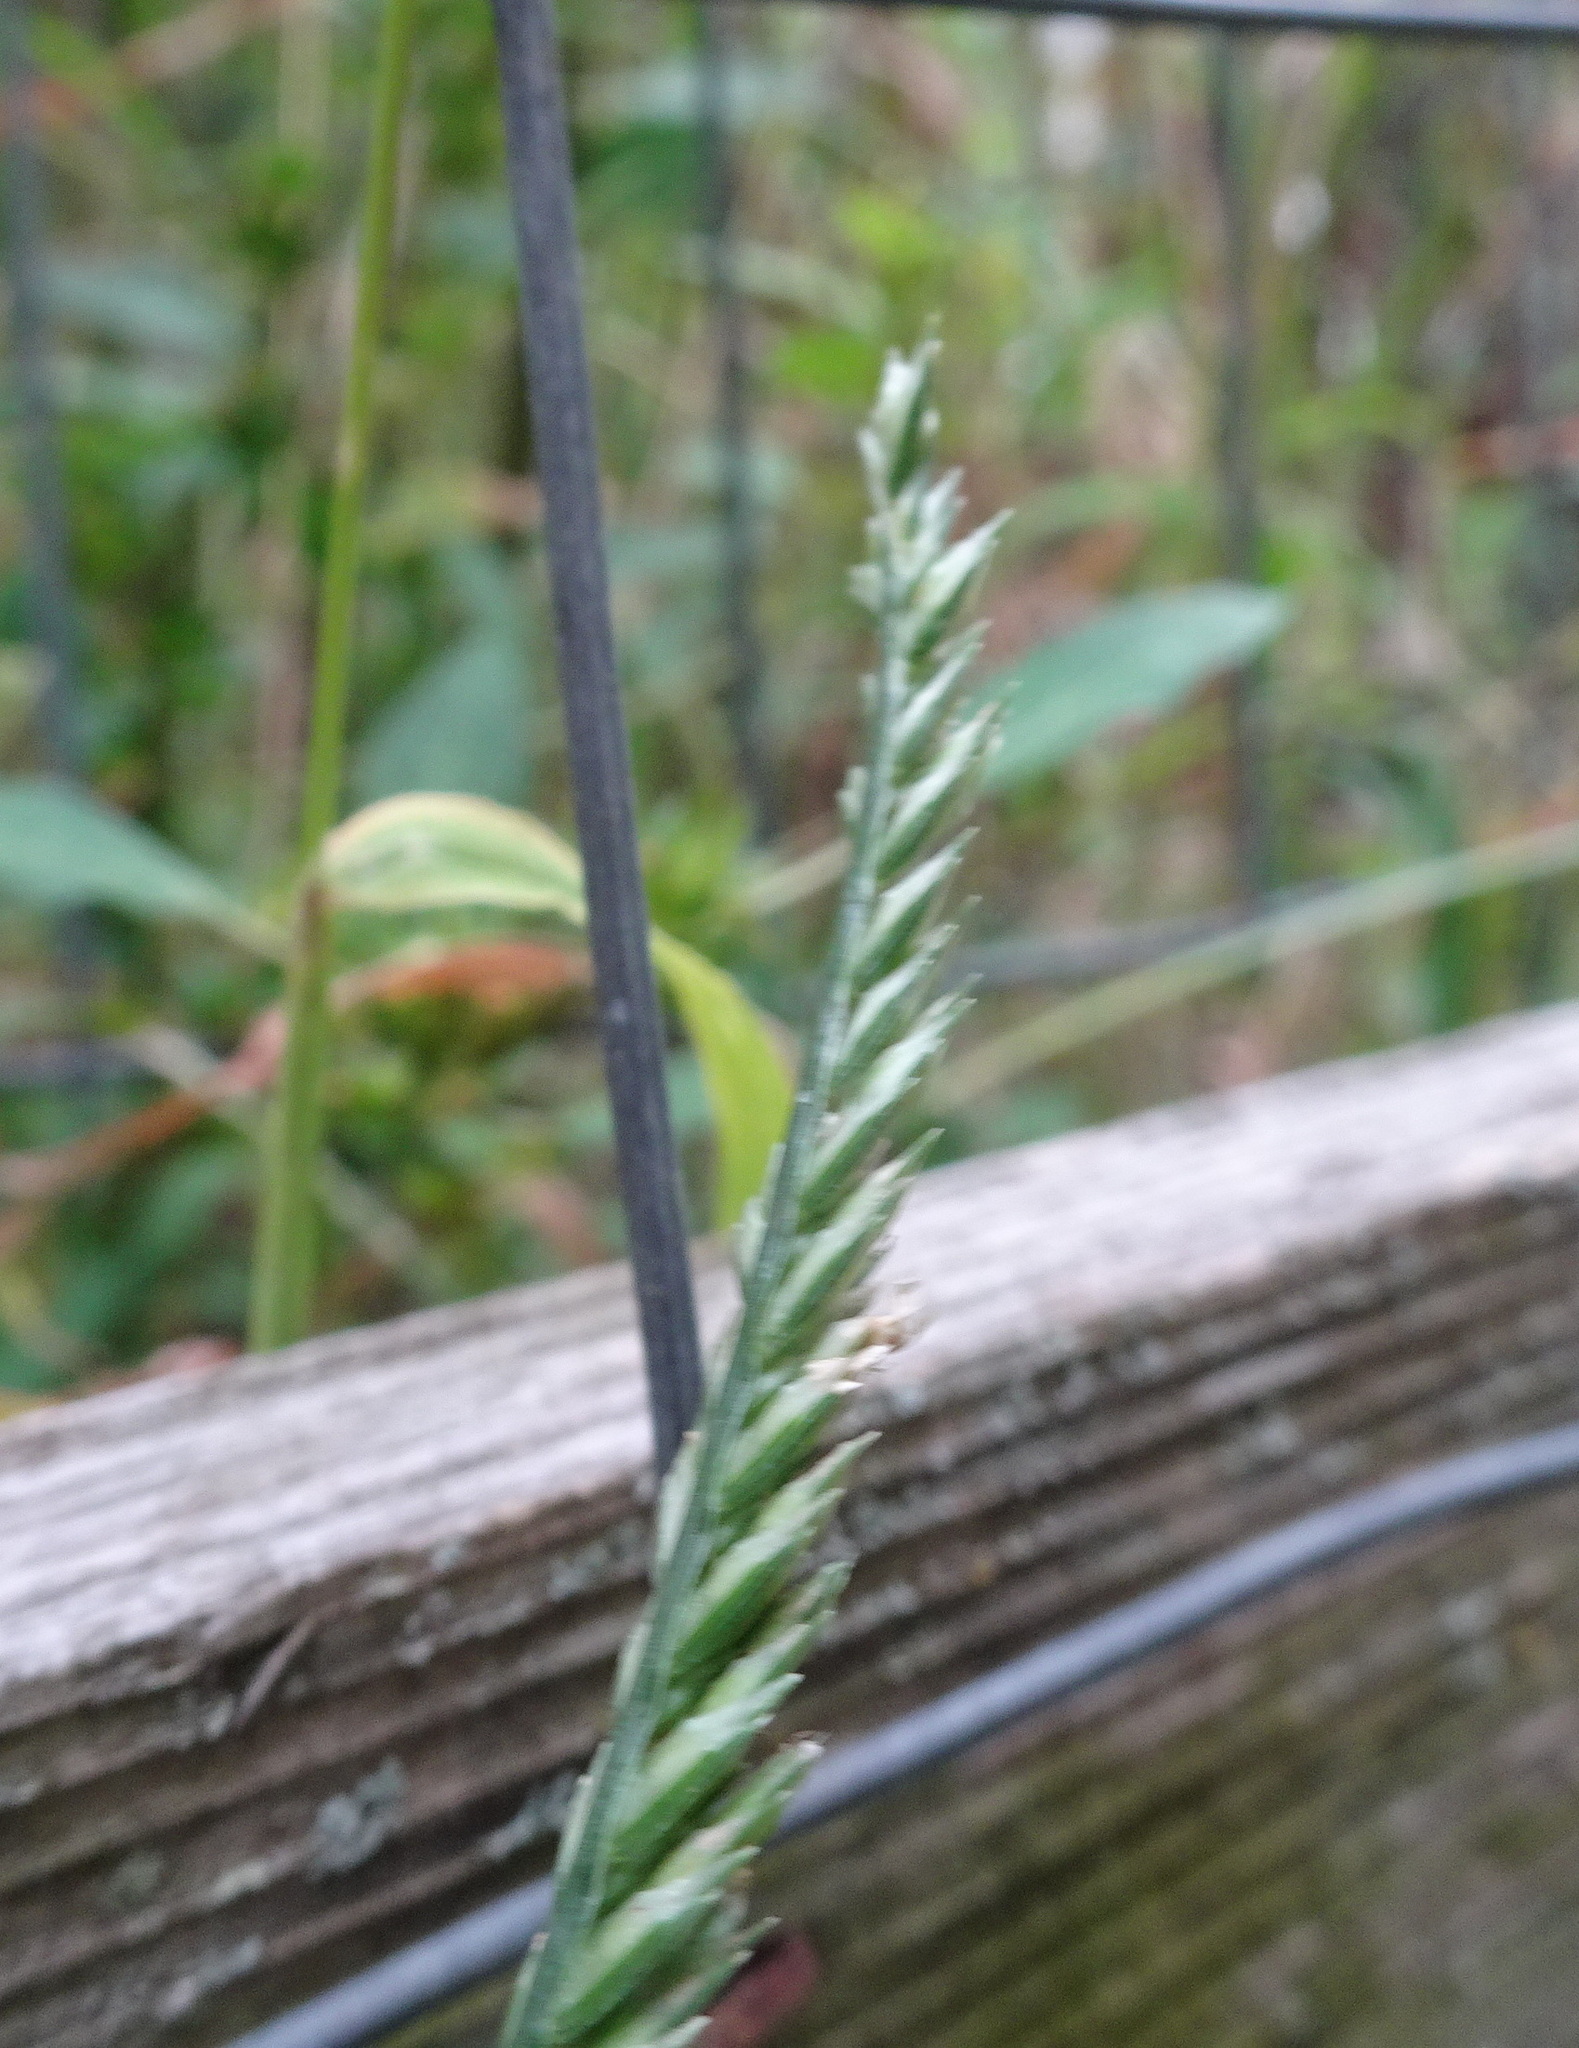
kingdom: Plantae
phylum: Tracheophyta
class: Liliopsida
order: Poales
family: Poaceae
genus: Eleusine
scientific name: Eleusine indica
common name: Yard-grass
